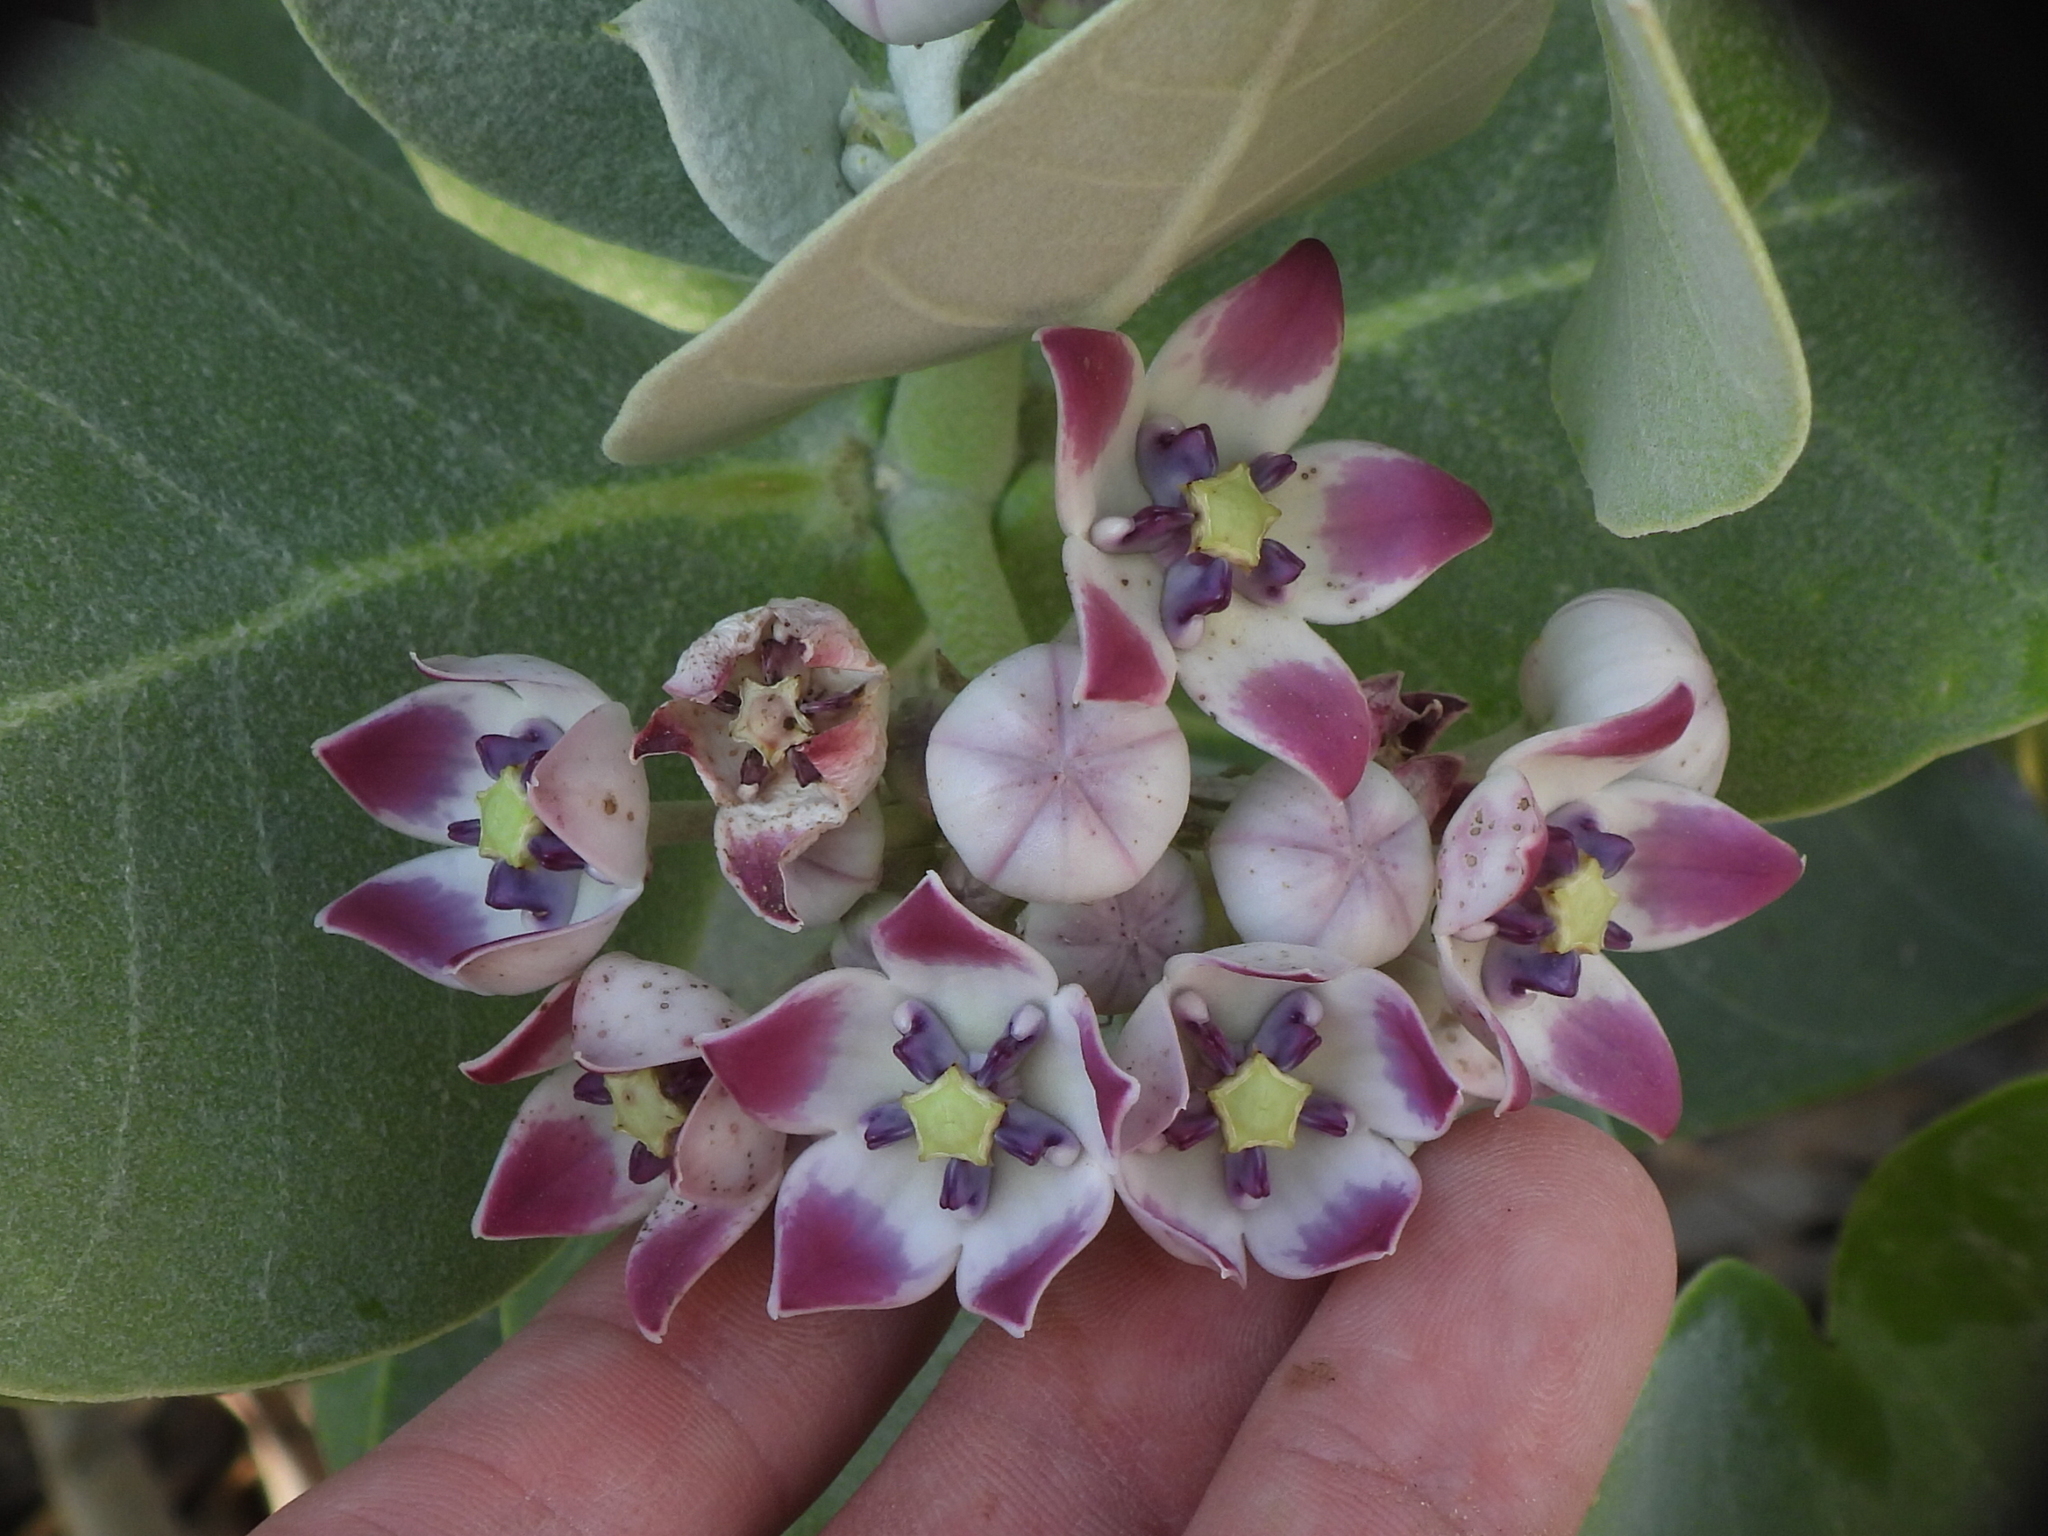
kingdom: Plantae
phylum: Tracheophyta
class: Magnoliopsida
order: Gentianales
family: Apocynaceae
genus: Calotropis
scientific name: Calotropis procera
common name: Roostertree
